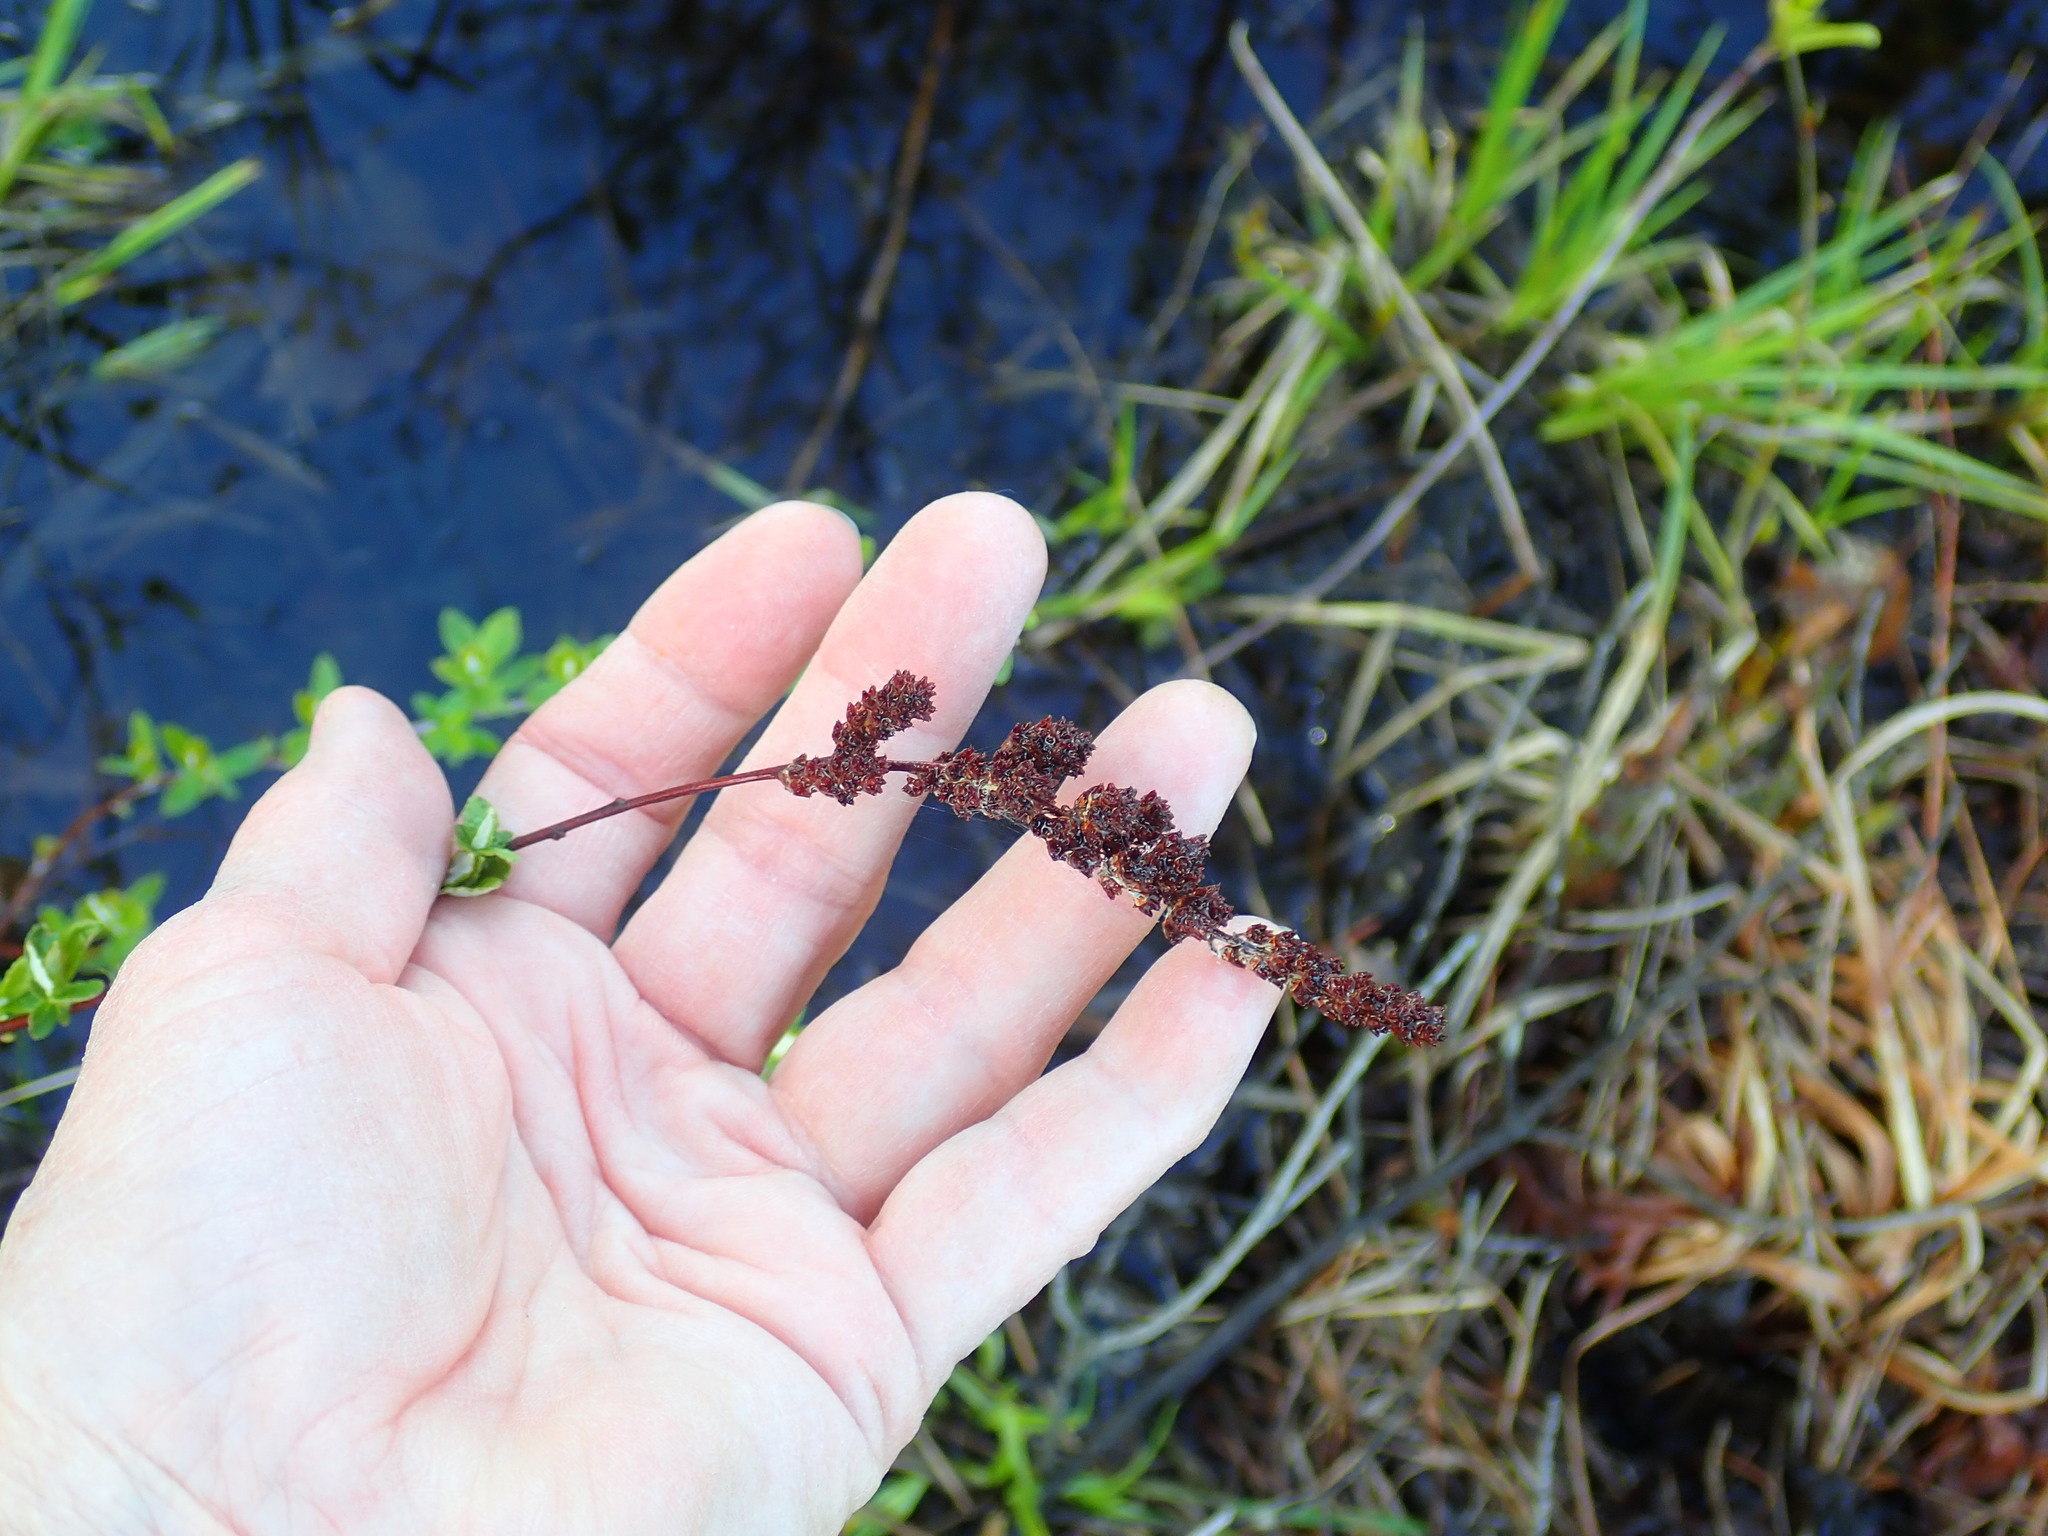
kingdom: Plantae
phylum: Tracheophyta
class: Magnoliopsida
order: Rosales
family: Rosaceae
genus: Spiraea
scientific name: Spiraea tomentosa
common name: Hardhack
